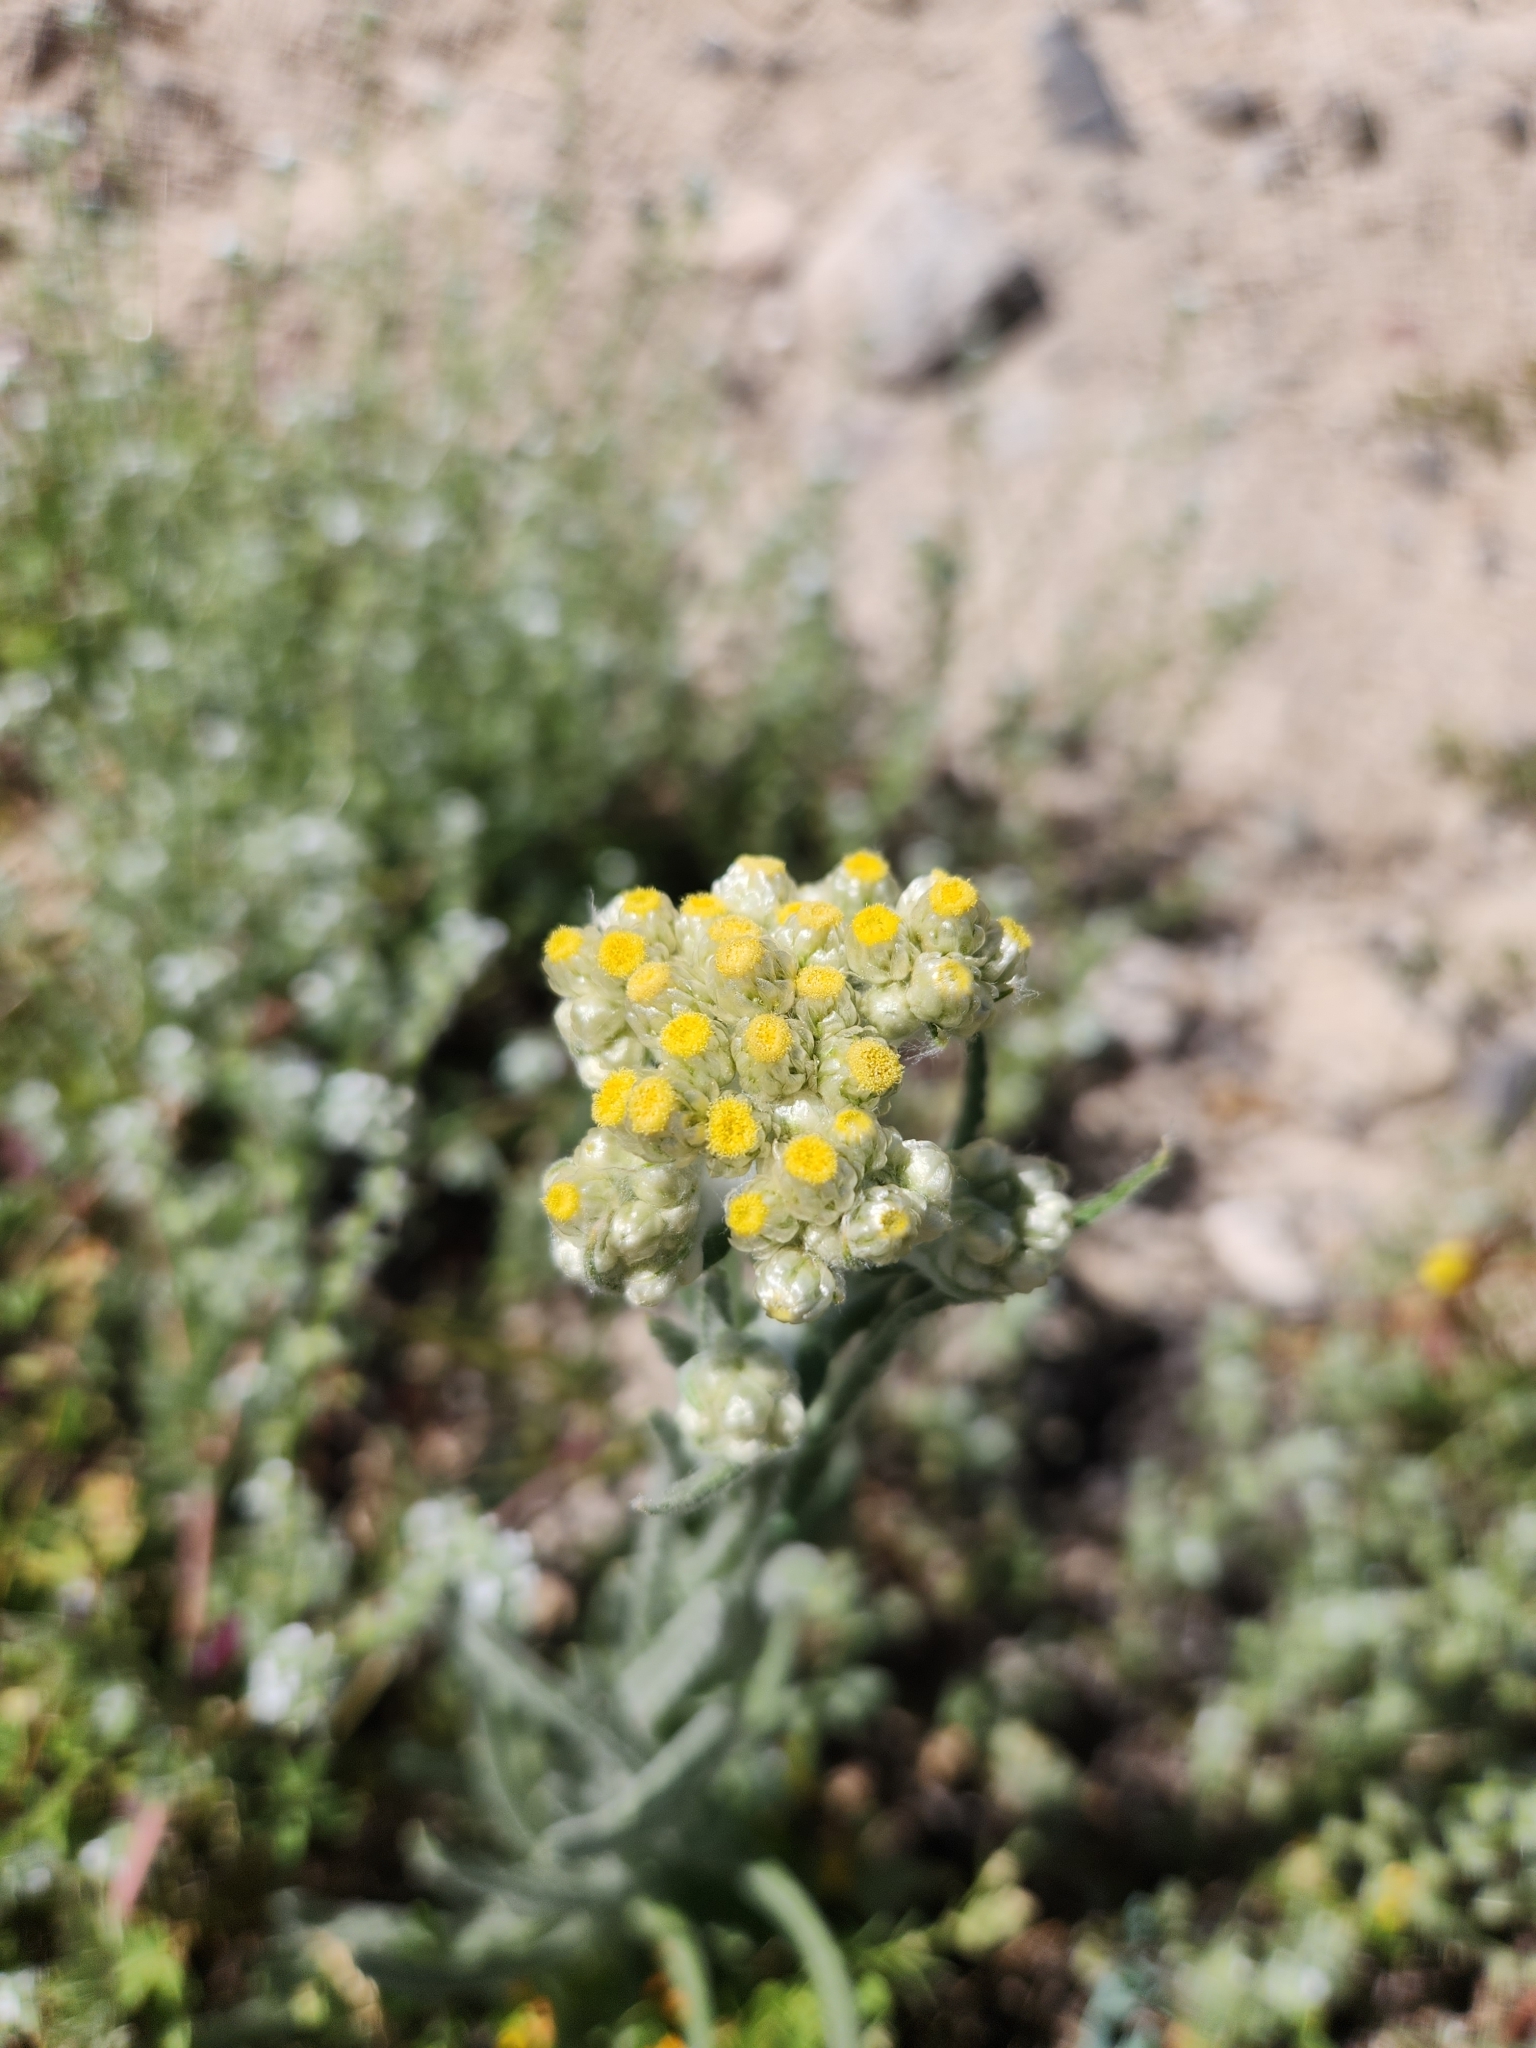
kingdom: Plantae
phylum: Tracheophyta
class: Magnoliopsida
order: Asterales
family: Asteraceae
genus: Pseudognaphalium
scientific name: Pseudognaphalium stramineum
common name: Cotton-batting-plant
